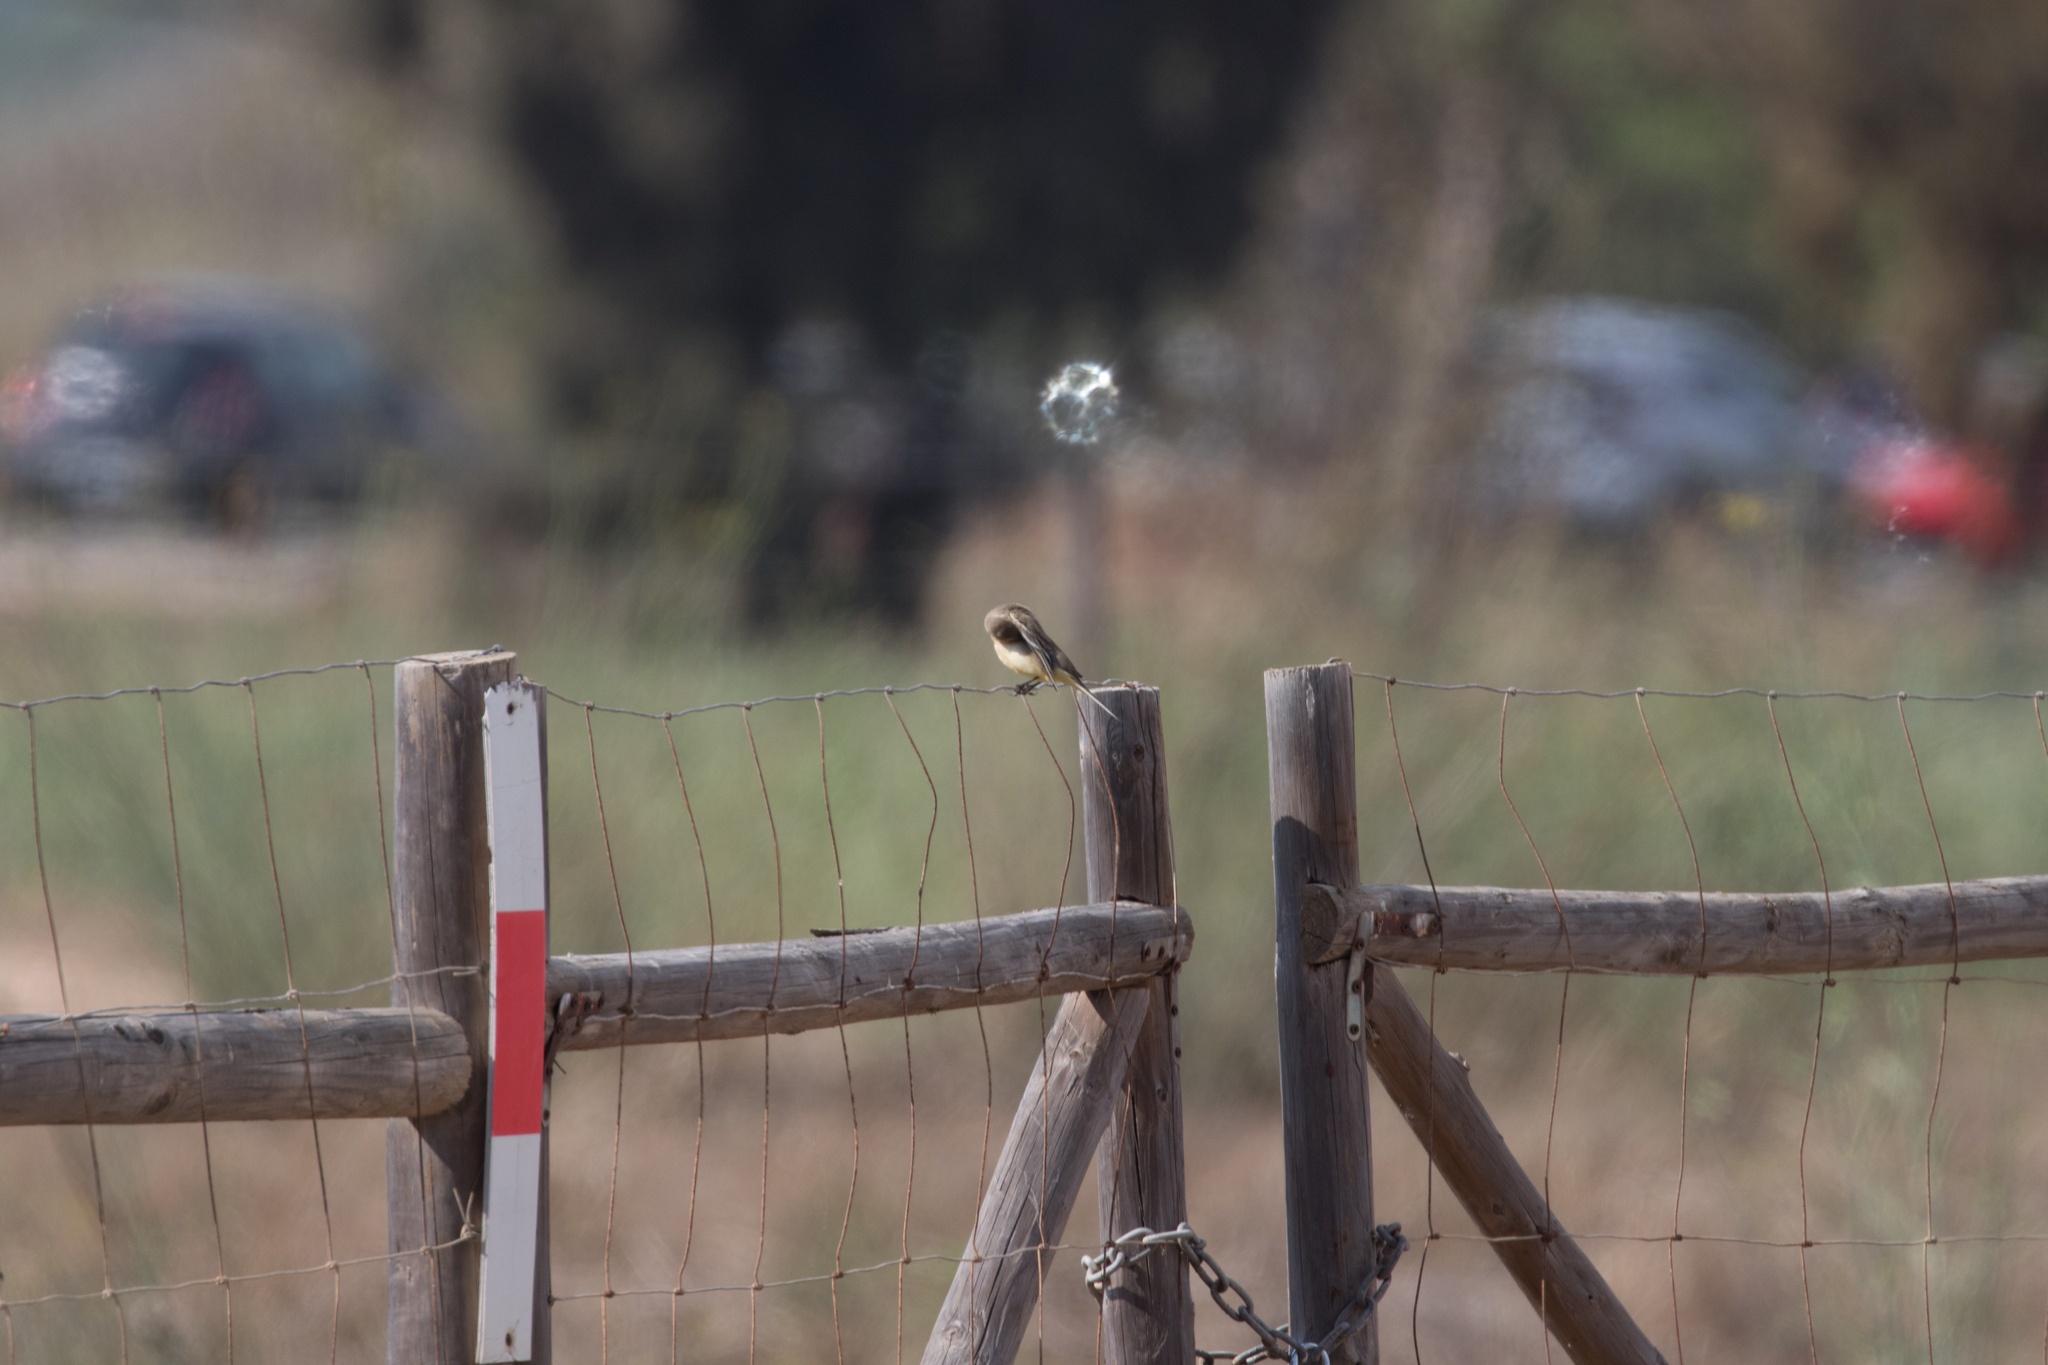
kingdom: Animalia
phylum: Chordata
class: Aves
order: Passeriformes
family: Motacillidae
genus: Motacilla
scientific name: Motacilla flava
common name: Western yellow wagtail
